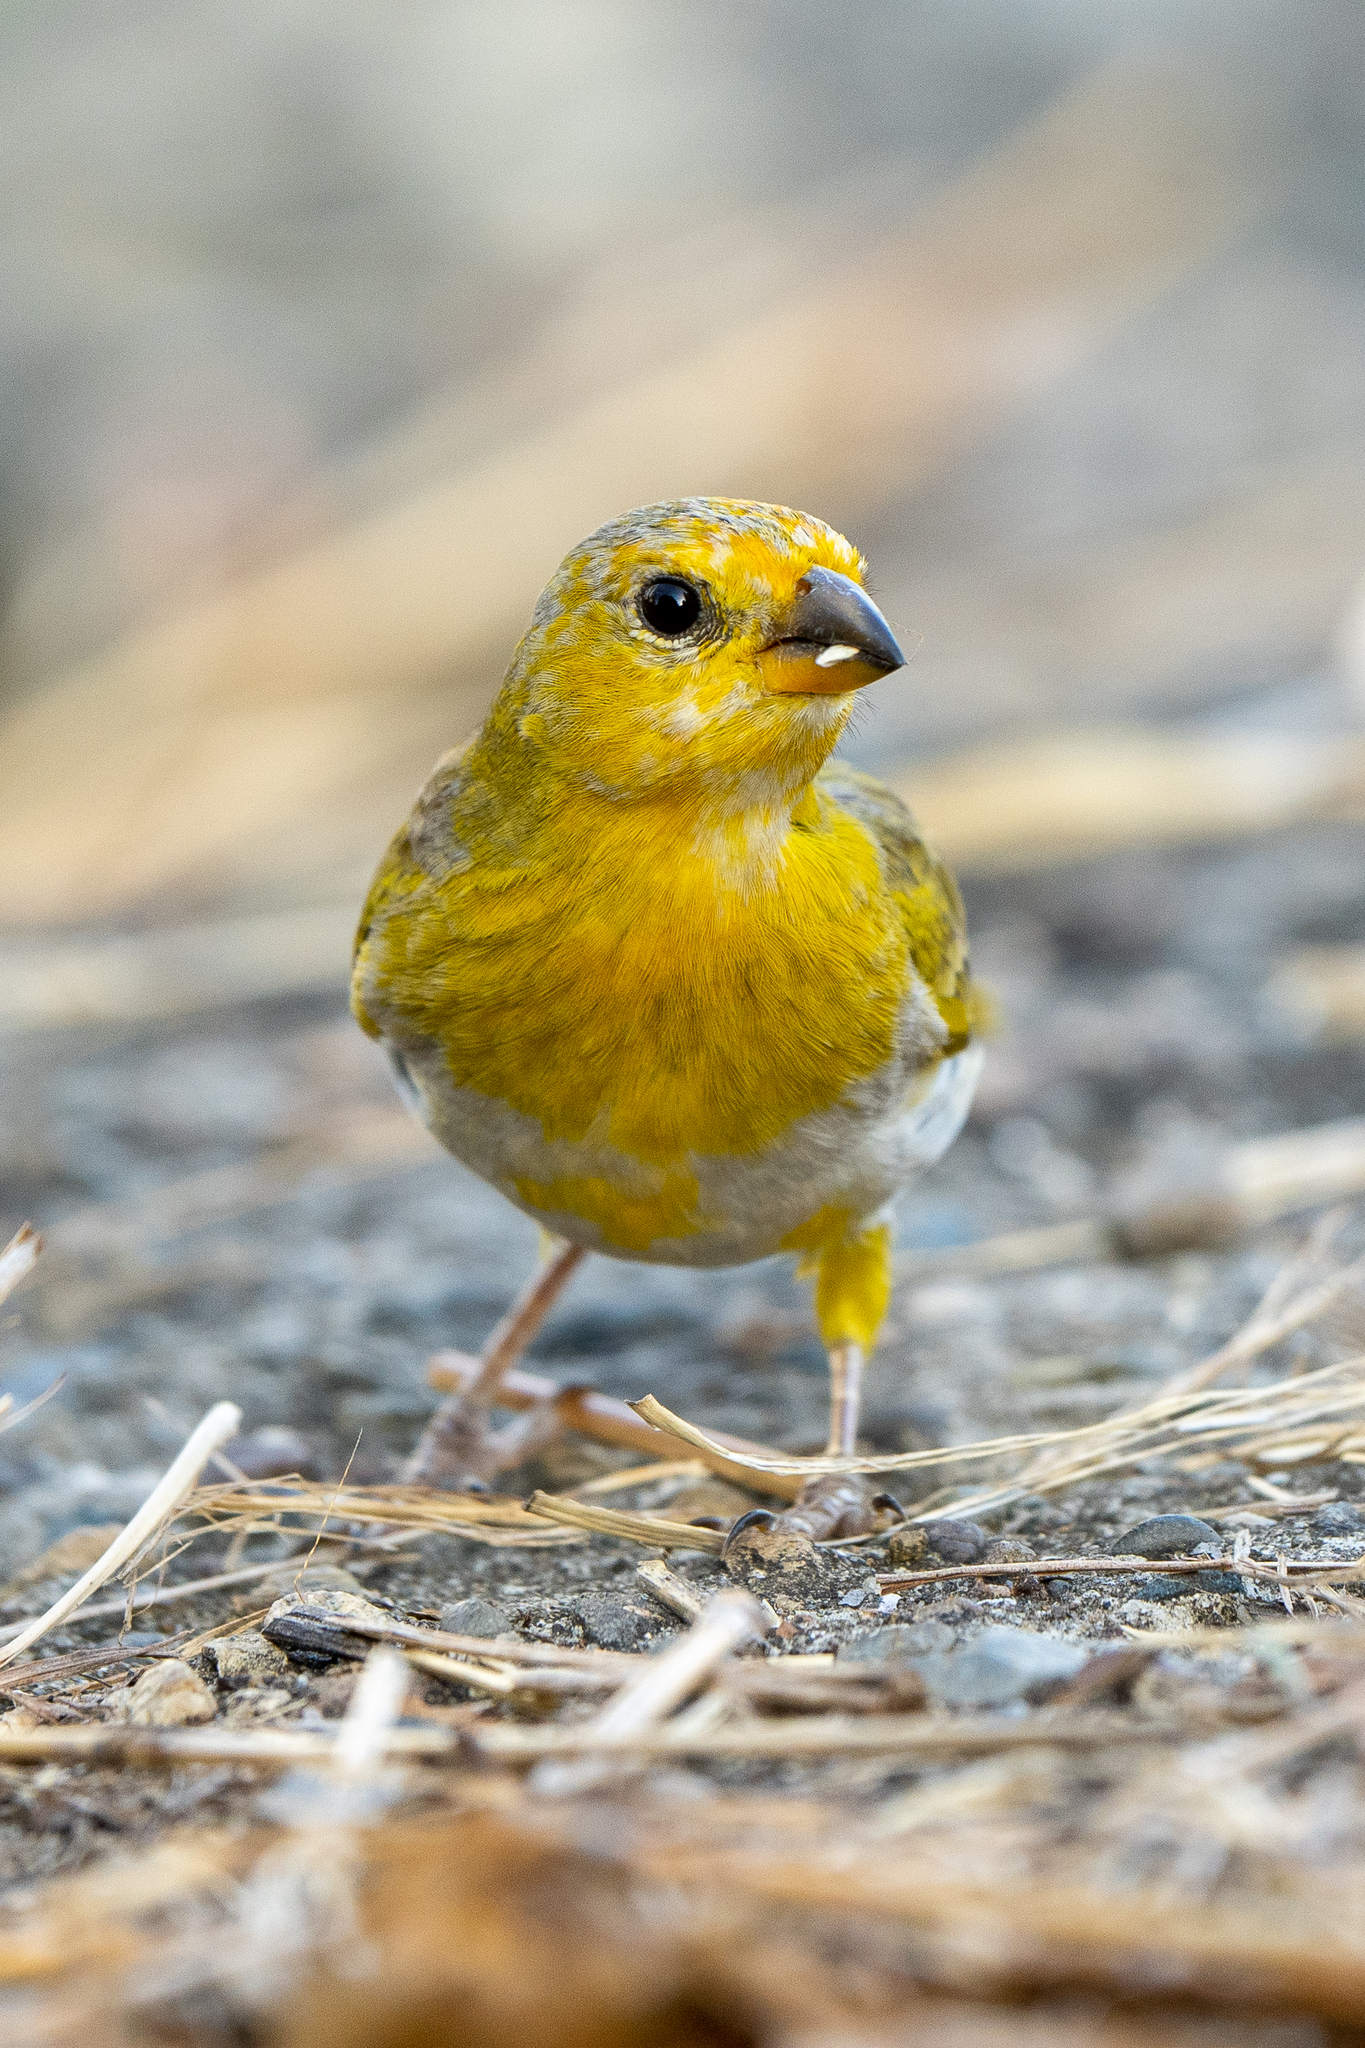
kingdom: Animalia
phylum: Chordata
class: Aves
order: Passeriformes
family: Thraupidae
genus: Sicalis
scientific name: Sicalis flaveola
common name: Saffron finch
